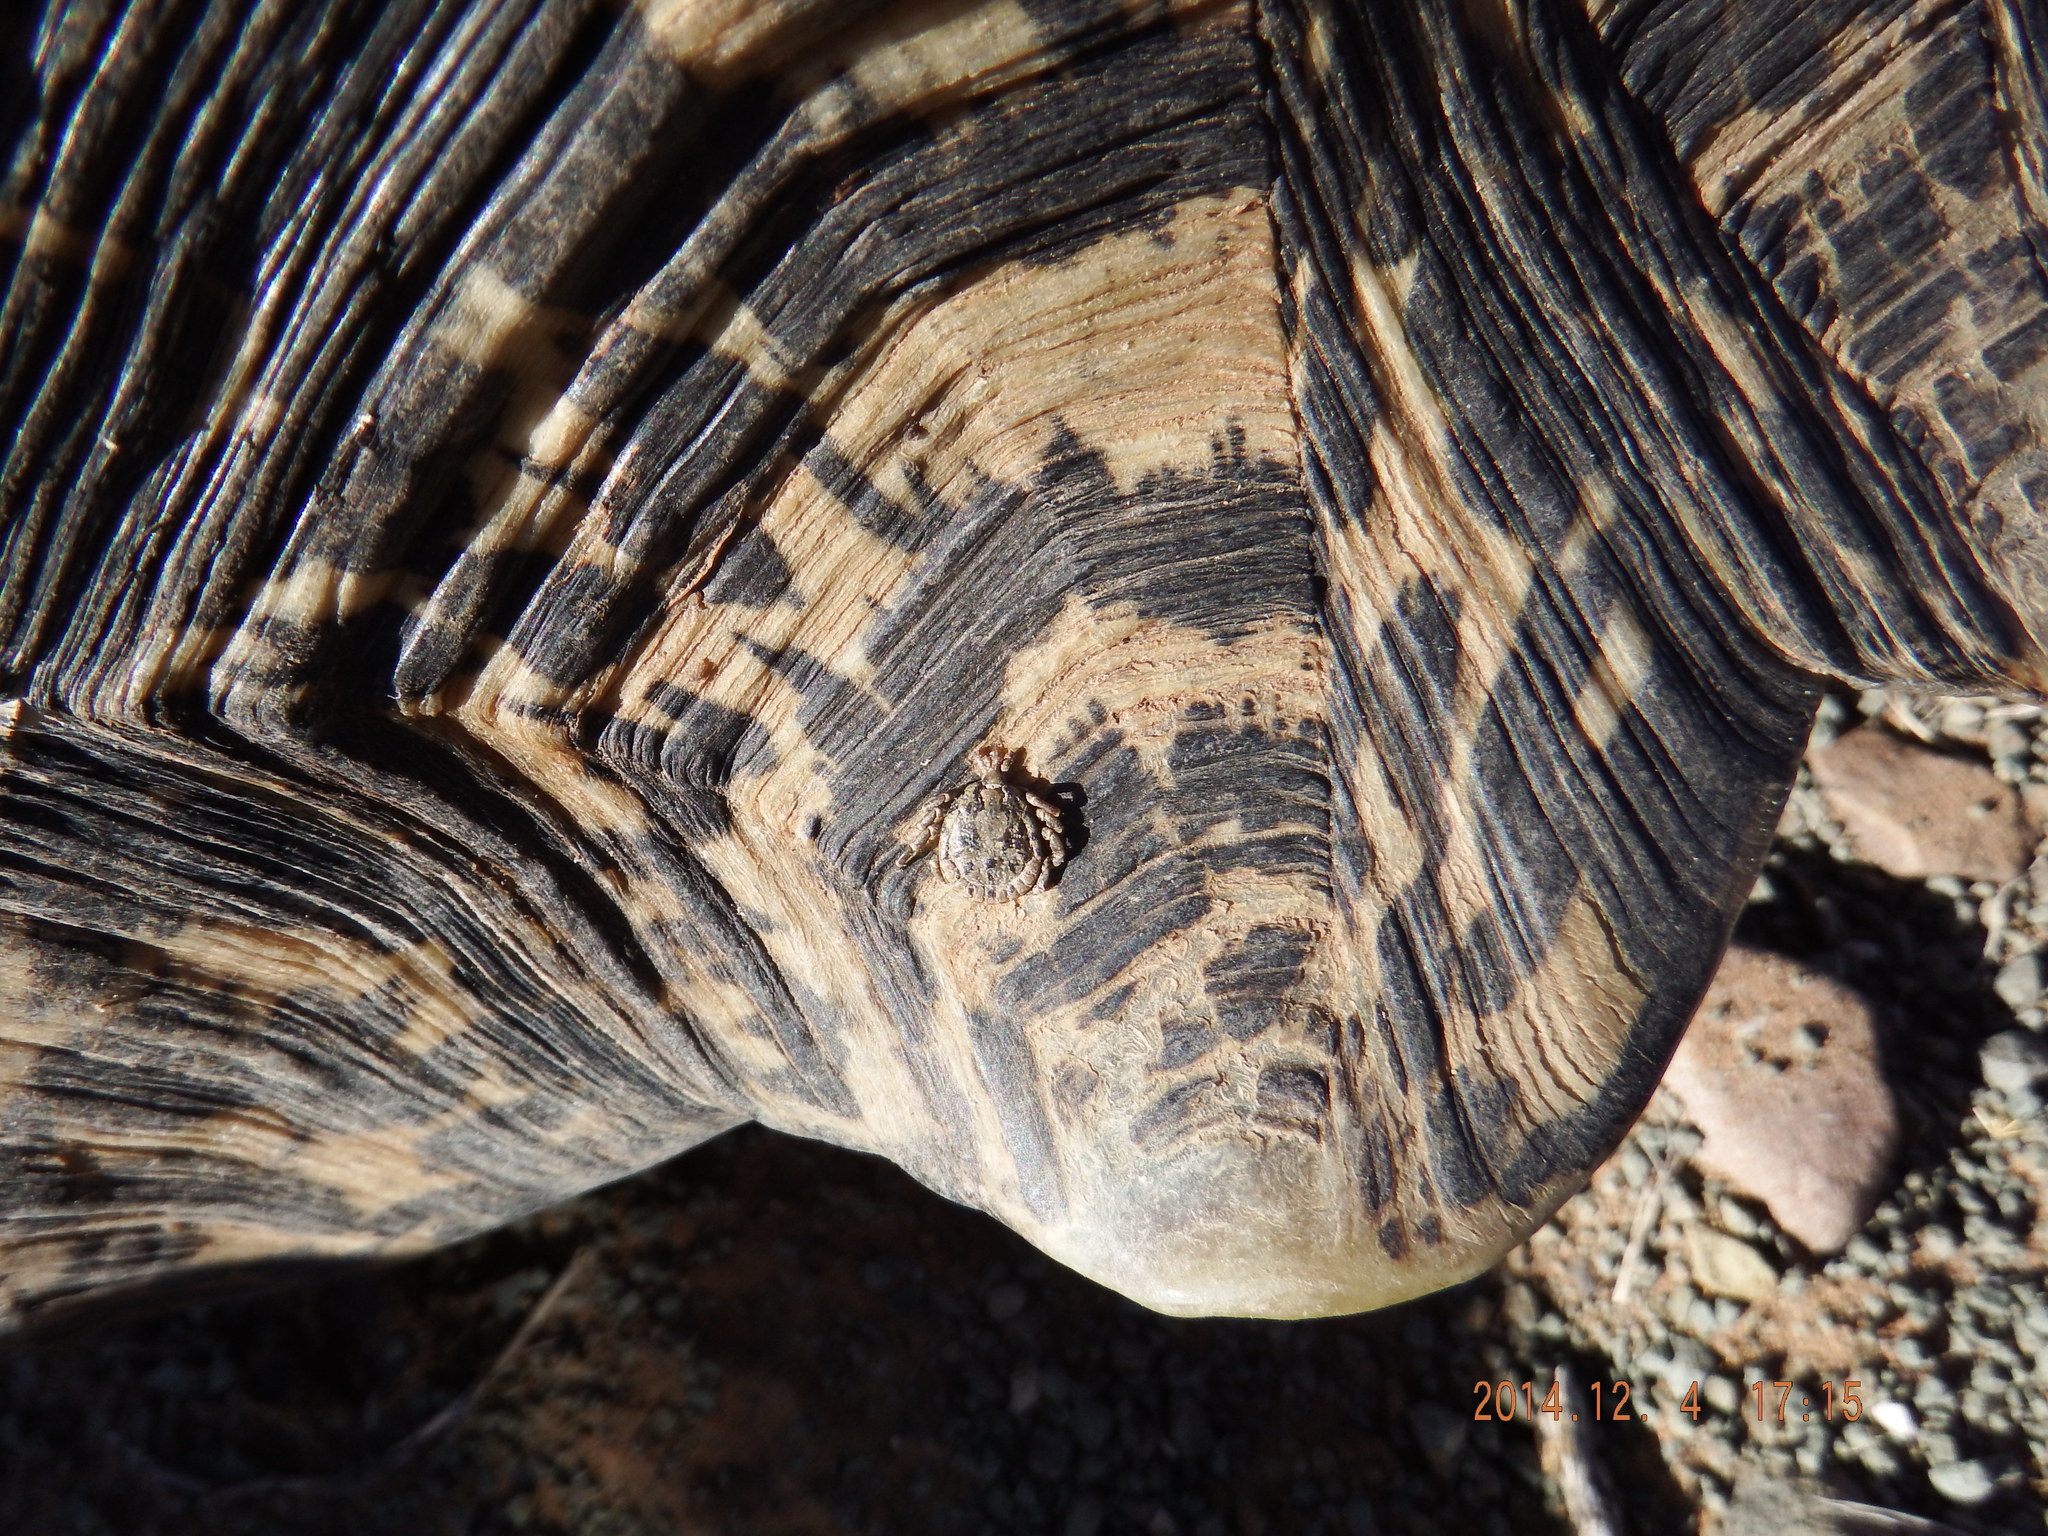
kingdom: Animalia
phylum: Arthropoda
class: Arachnida
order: Ixodida
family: Ixodidae
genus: Amblyomma
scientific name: Amblyomma marmoreum
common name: South african tortoise tick
